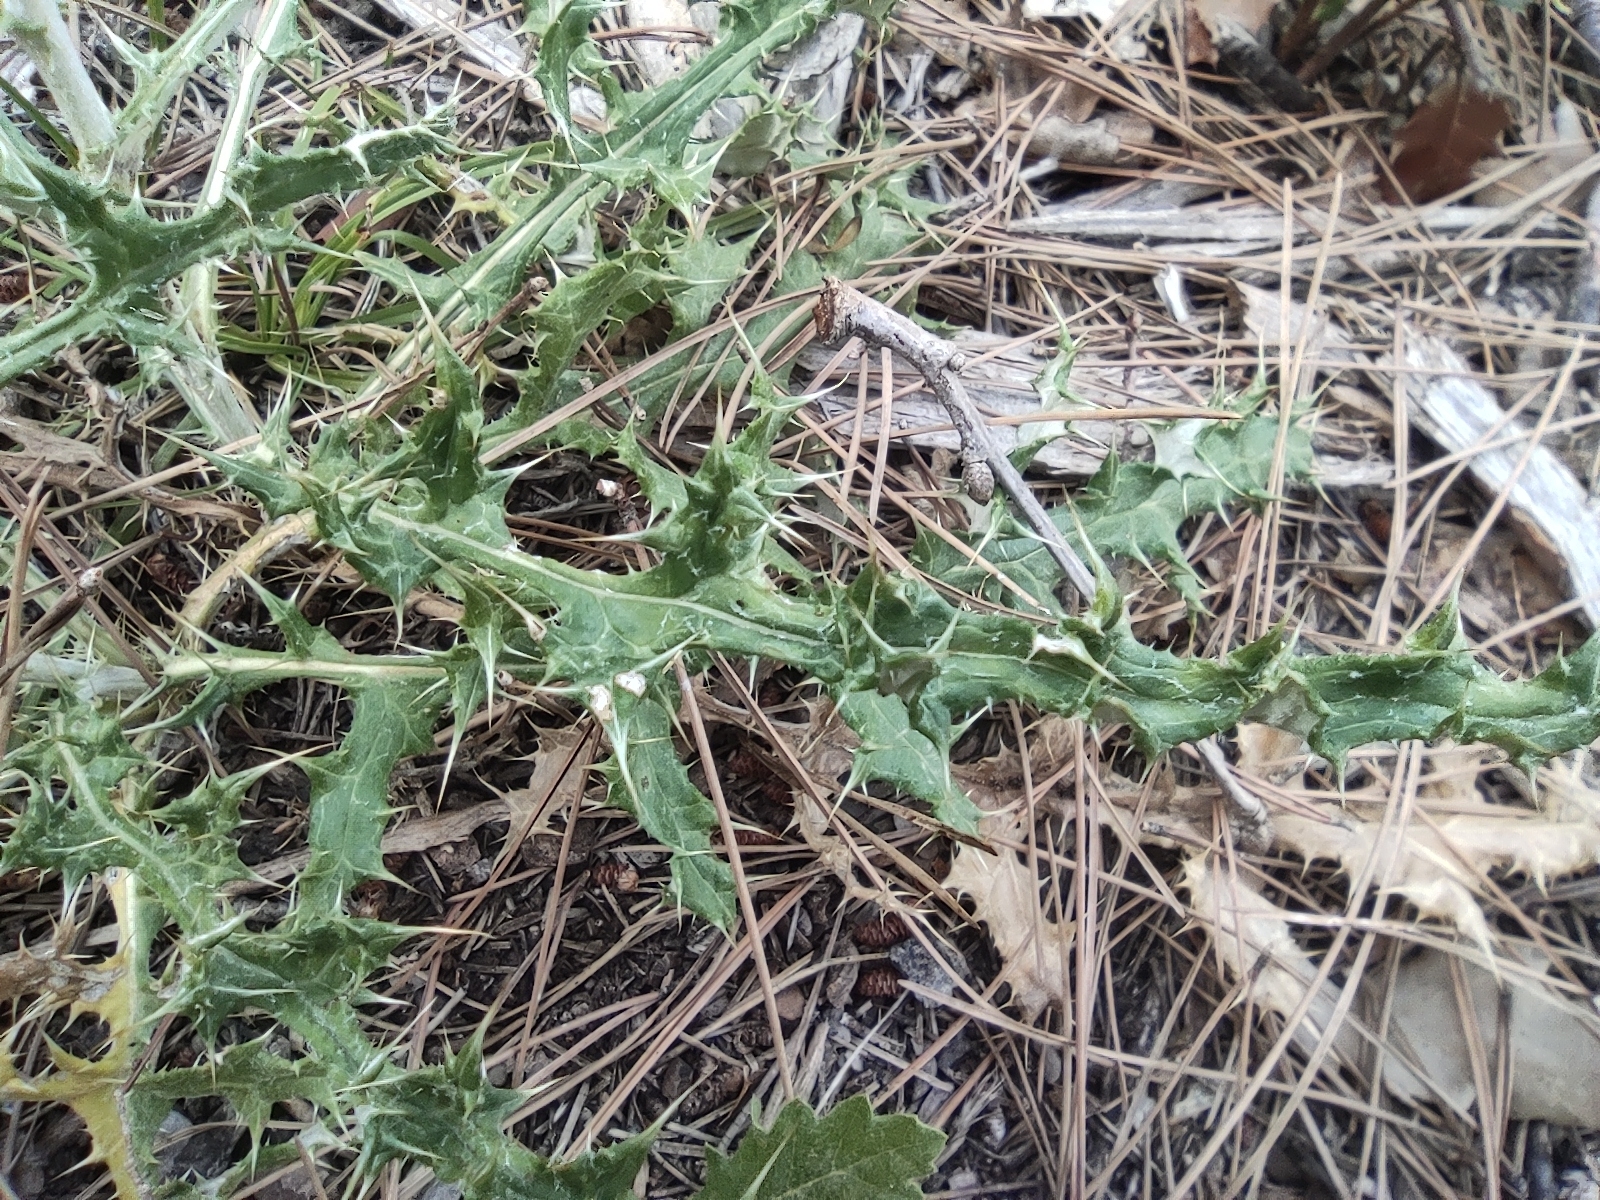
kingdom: Plantae
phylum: Tracheophyta
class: Magnoliopsida
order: Asterales
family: Asteraceae
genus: Echinops
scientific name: Echinops ritro
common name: Globe thistle
